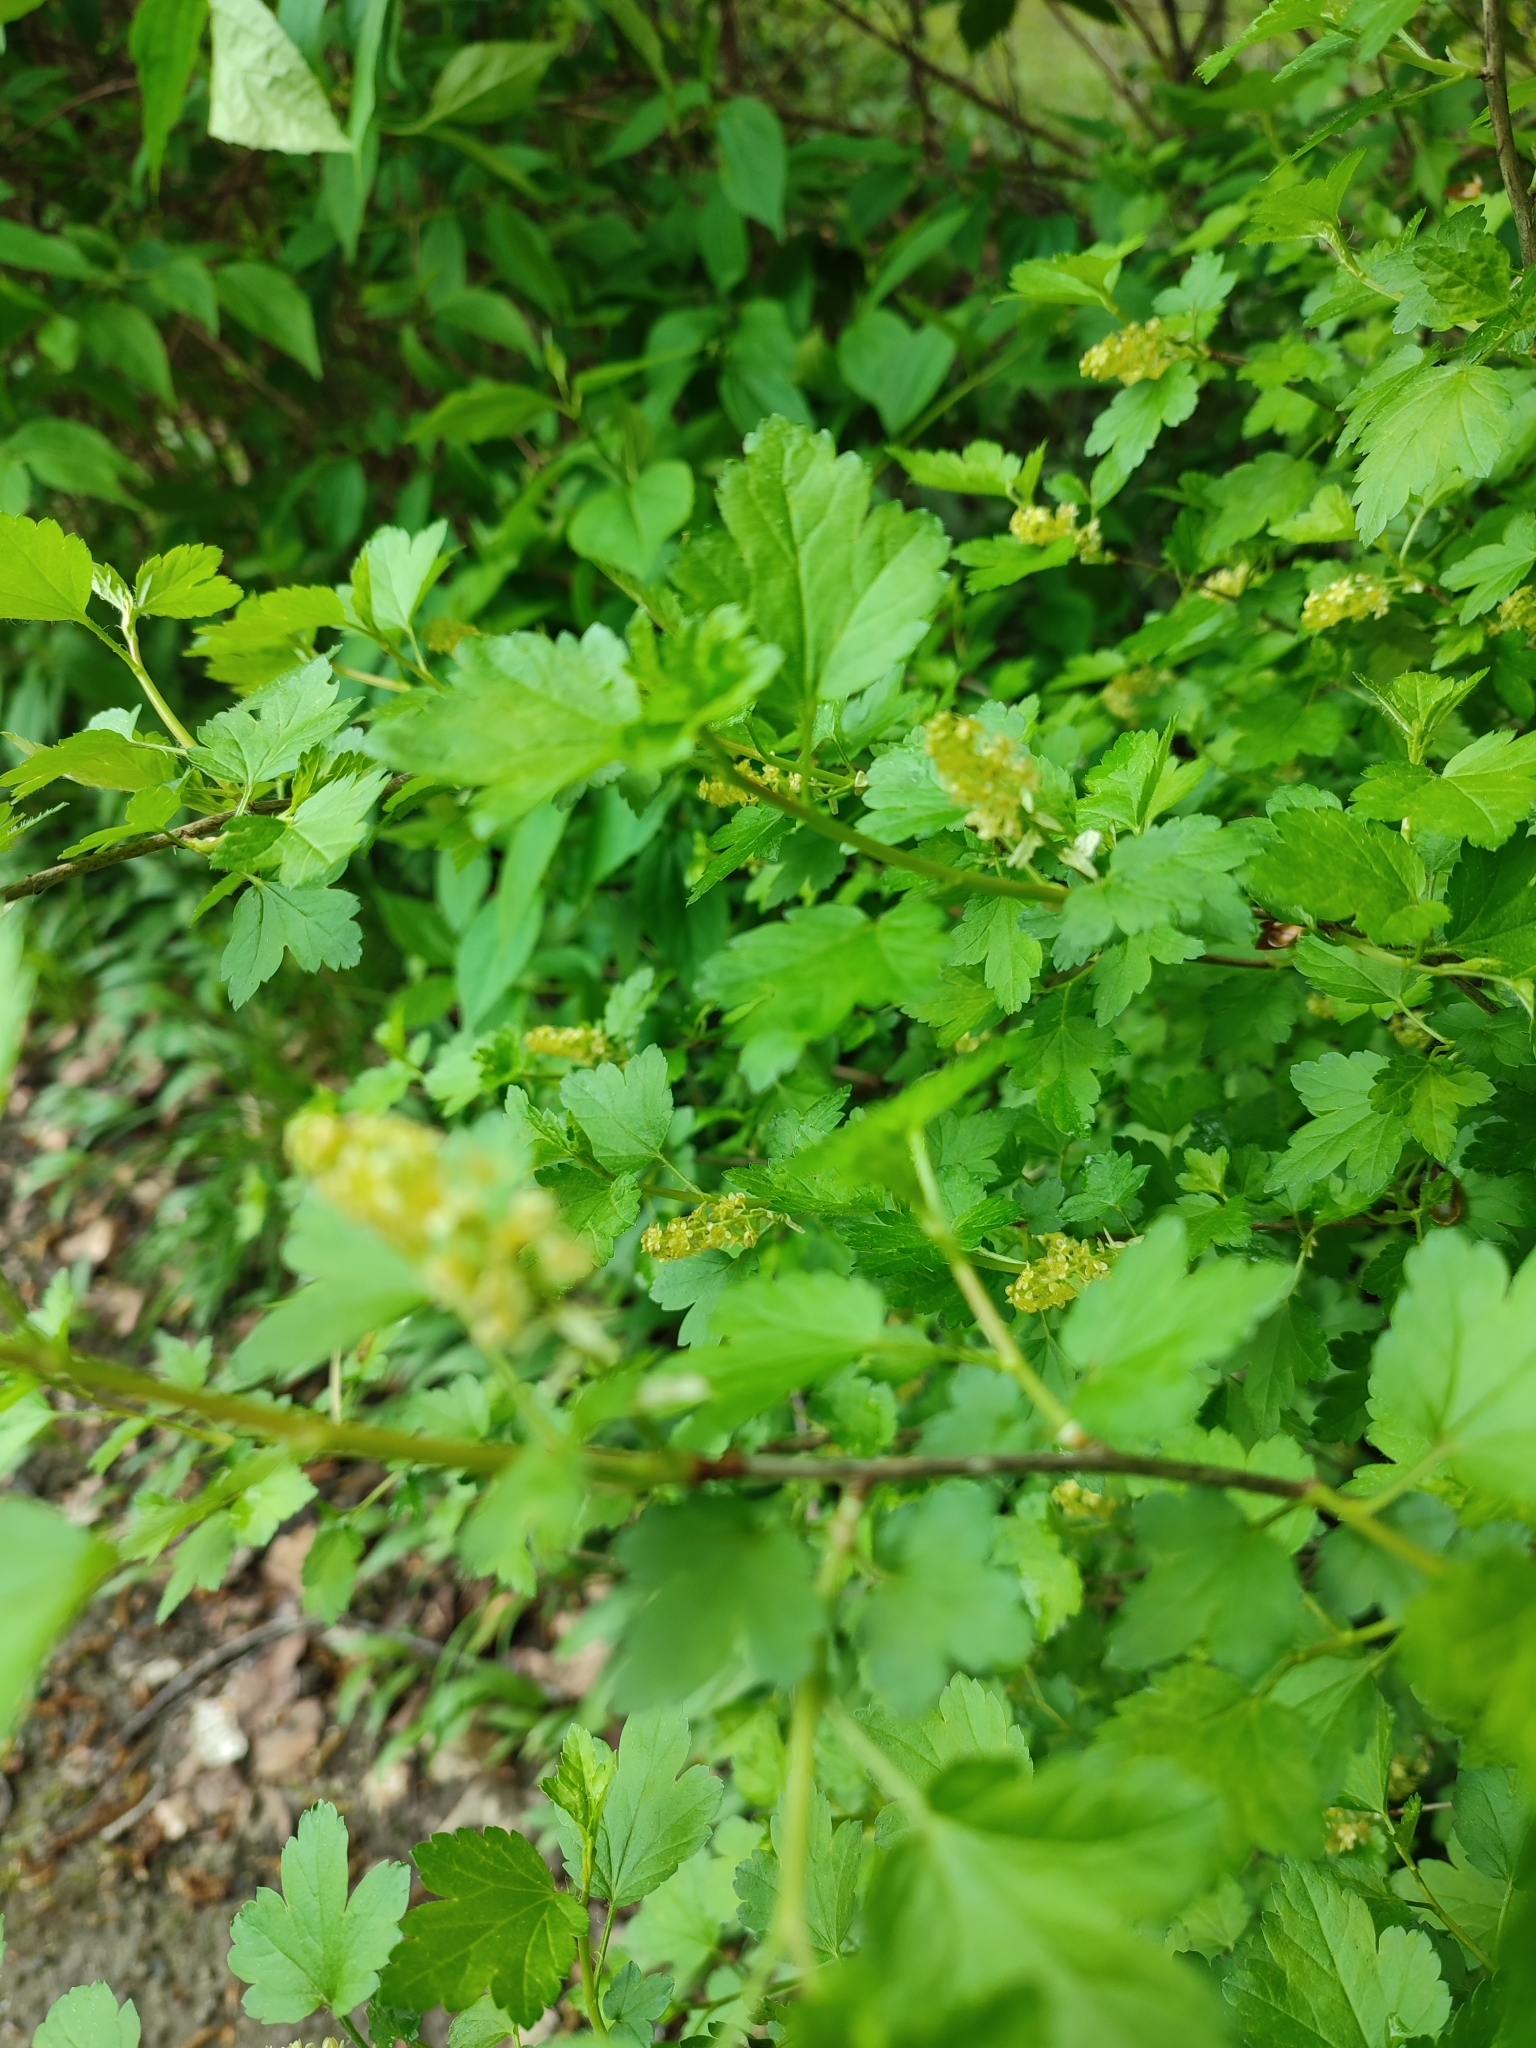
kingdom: Plantae
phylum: Tracheophyta
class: Magnoliopsida
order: Saxifragales
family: Grossulariaceae
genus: Ribes
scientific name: Ribes alpinum
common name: Alpine currant
